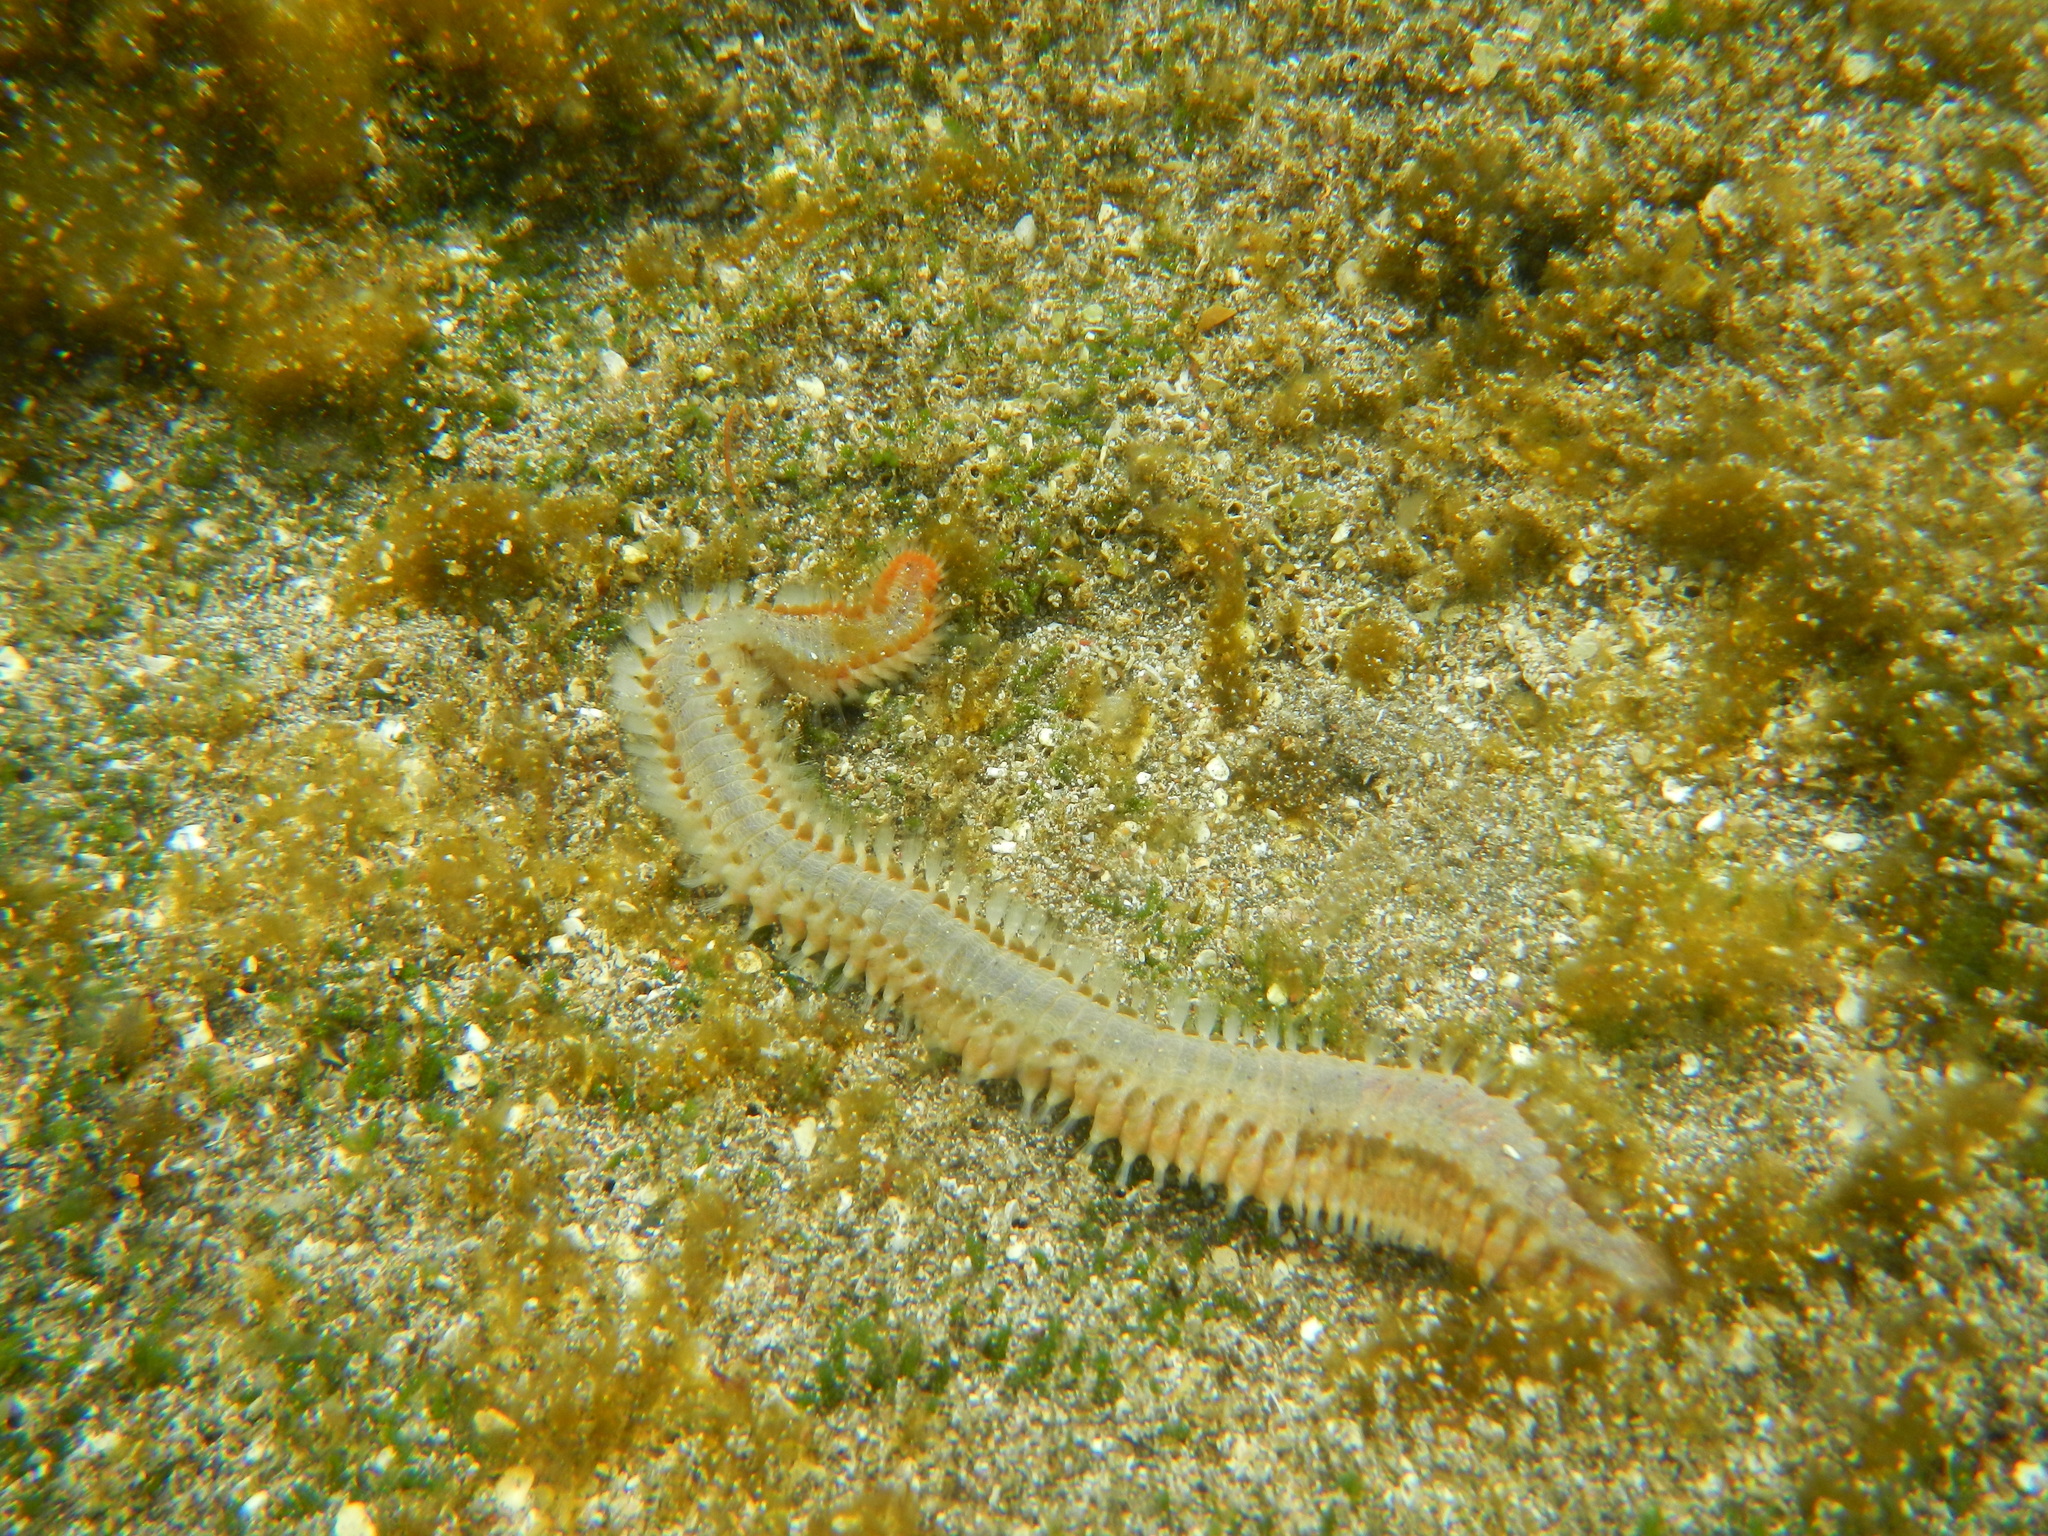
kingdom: Animalia
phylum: Annelida
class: Polychaeta
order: Amphinomida
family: Amphinomidae
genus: Eurythoe
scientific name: Eurythoe complanata
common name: Fireworm
